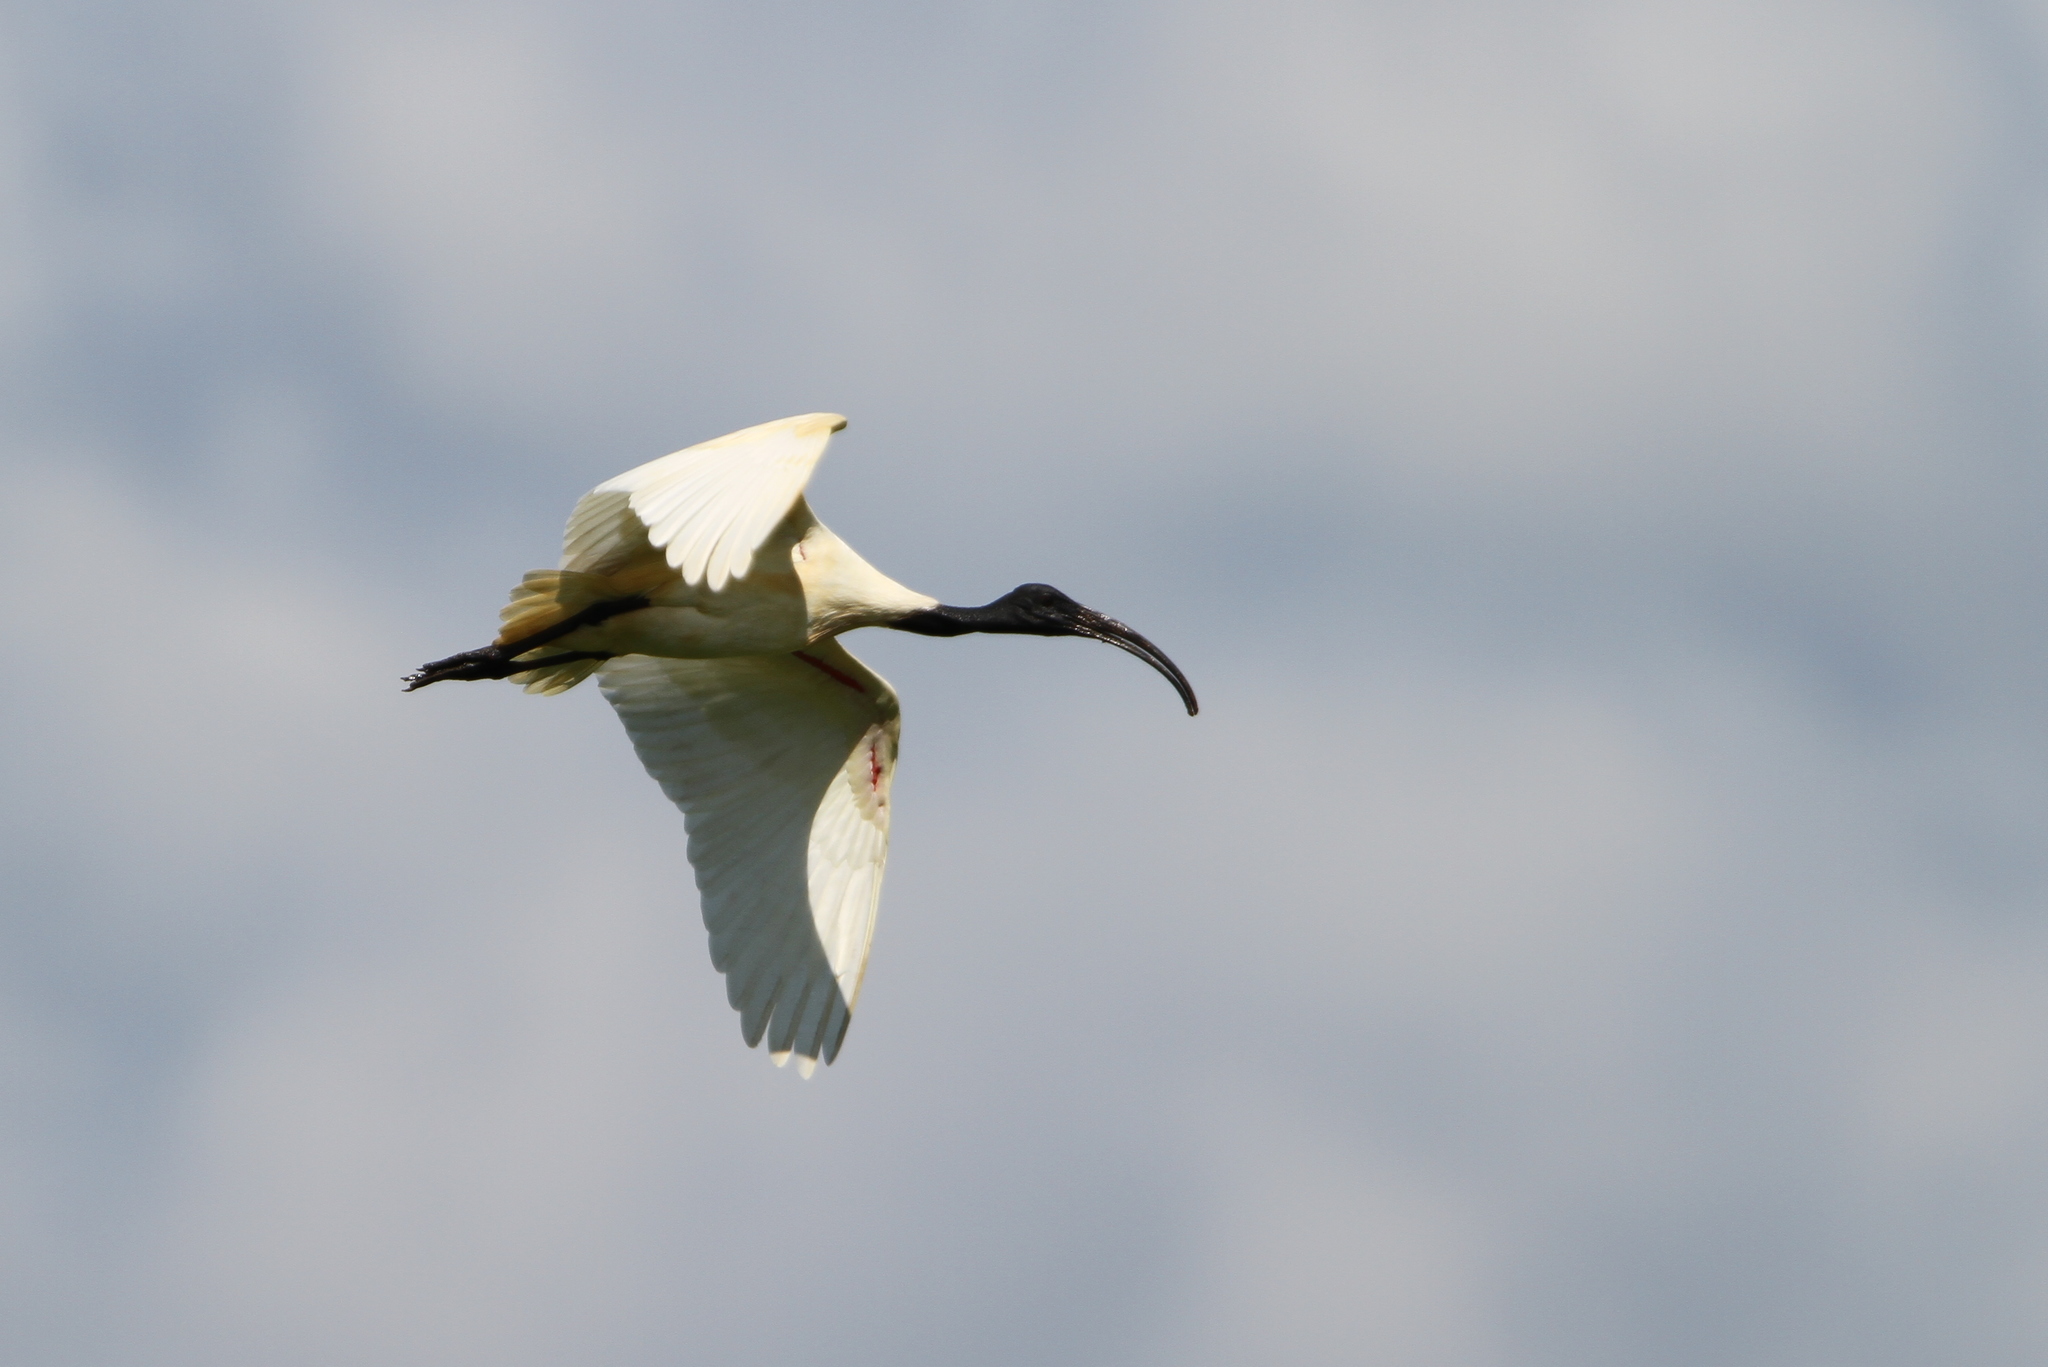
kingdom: Animalia
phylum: Chordata
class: Aves
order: Pelecaniformes
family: Threskiornithidae
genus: Threskiornis
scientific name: Threskiornis melanocephalus
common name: Black-headed ibis
